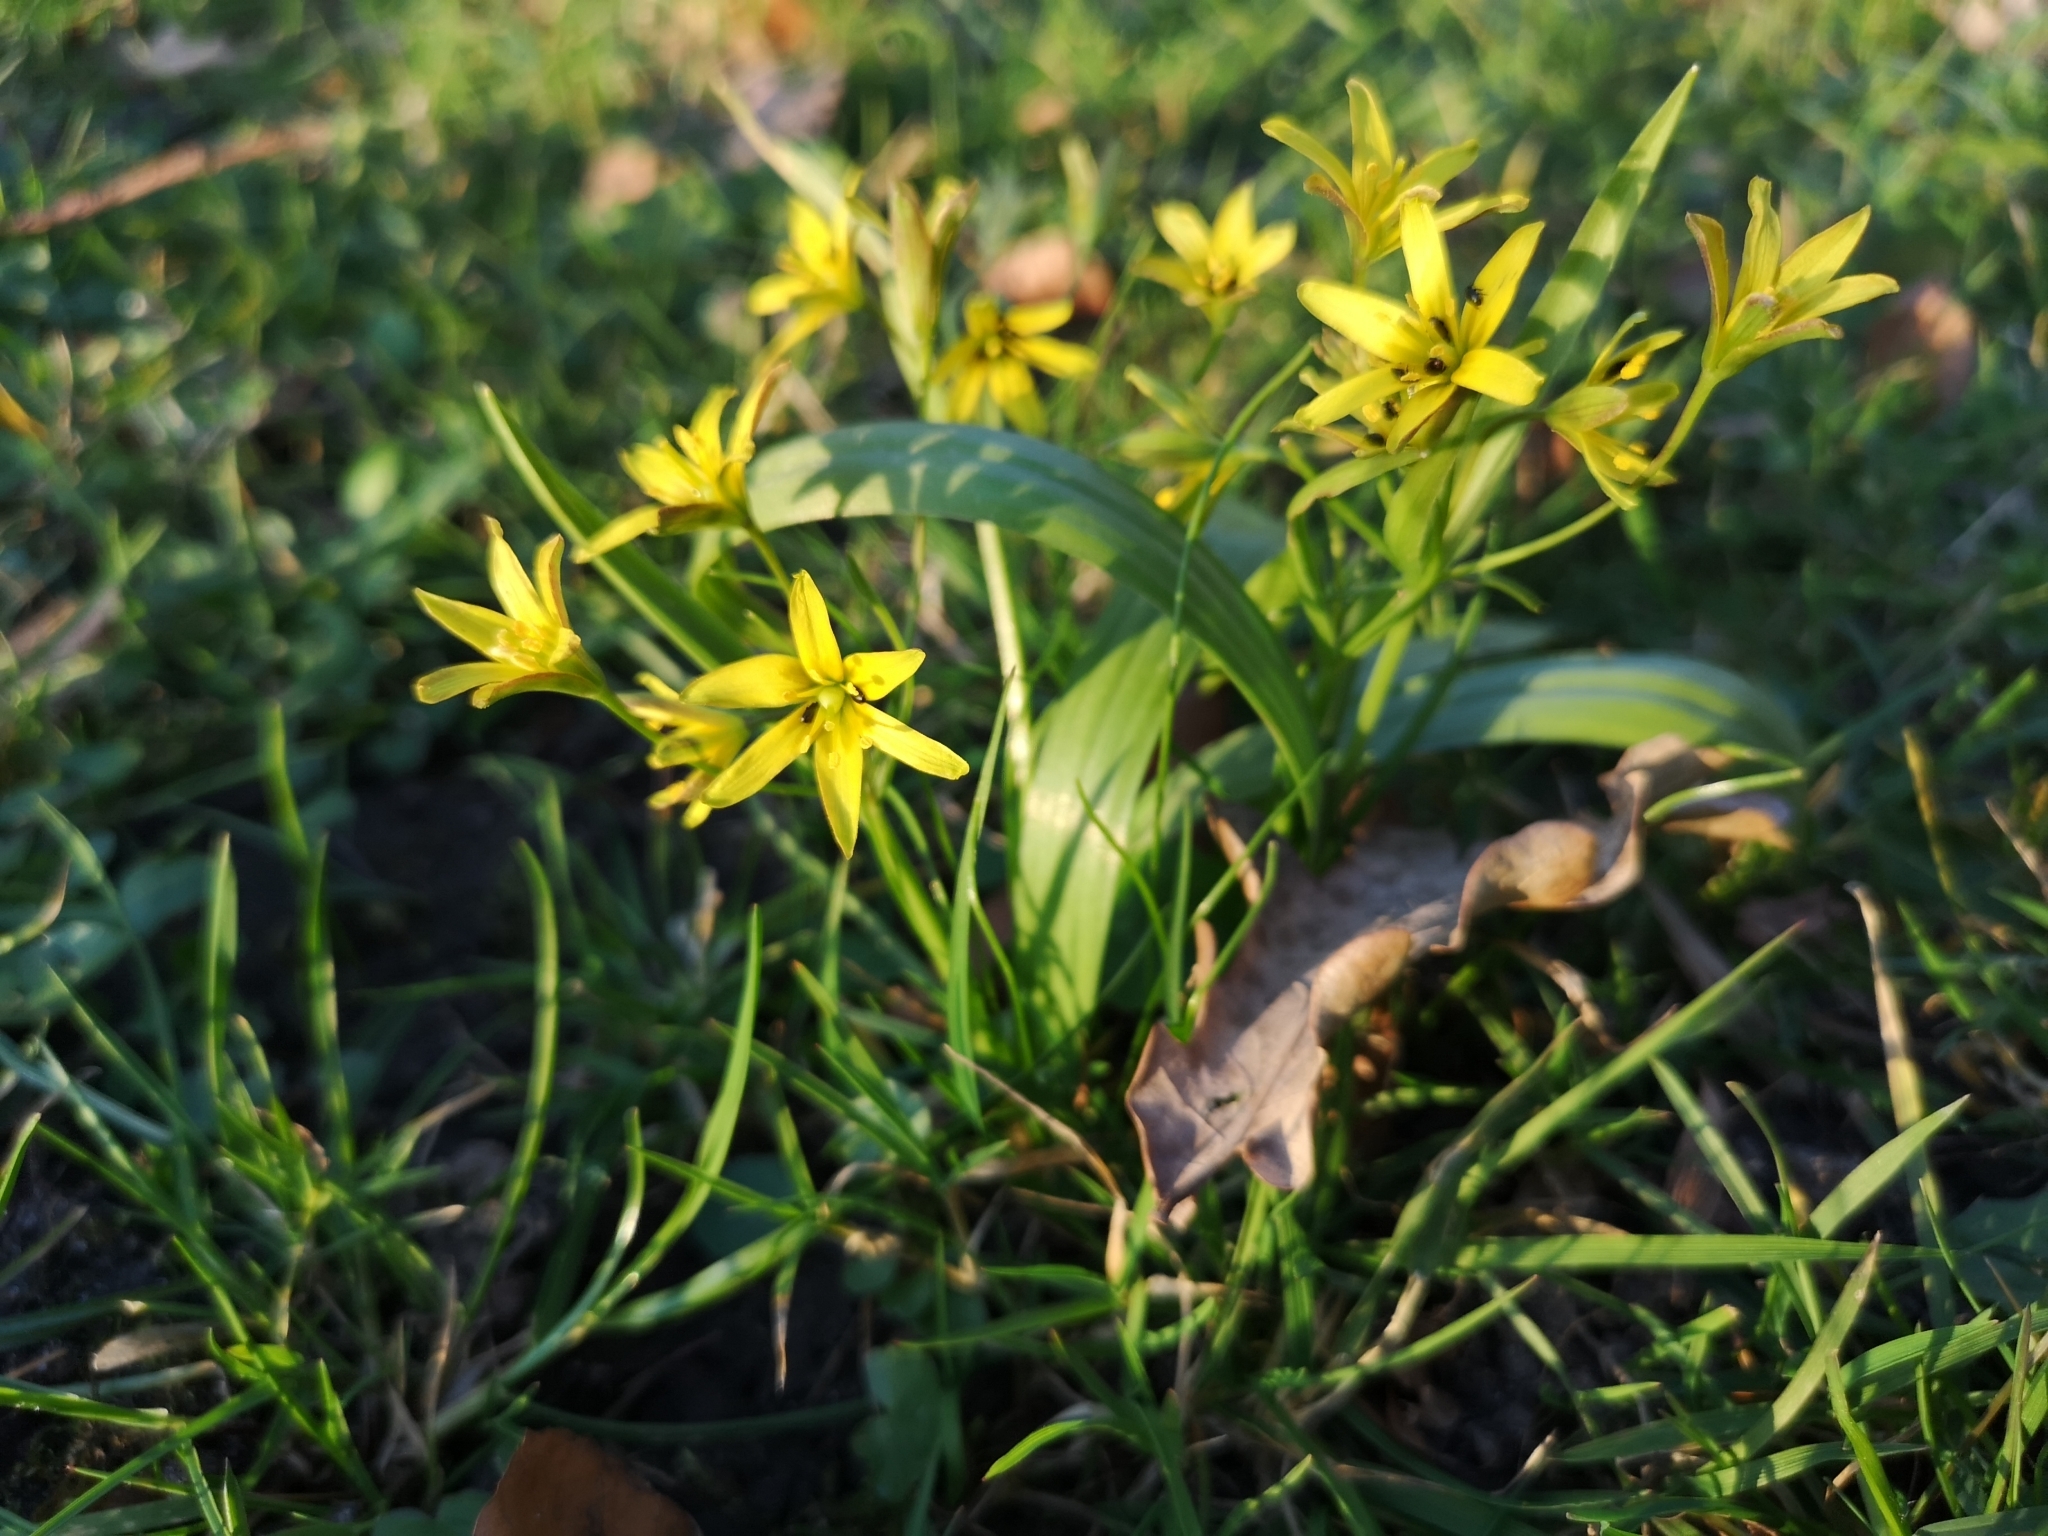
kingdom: Plantae
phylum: Tracheophyta
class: Liliopsida
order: Liliales
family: Liliaceae
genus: Gagea
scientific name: Gagea lutea
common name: Yellow star-of-bethlehem
